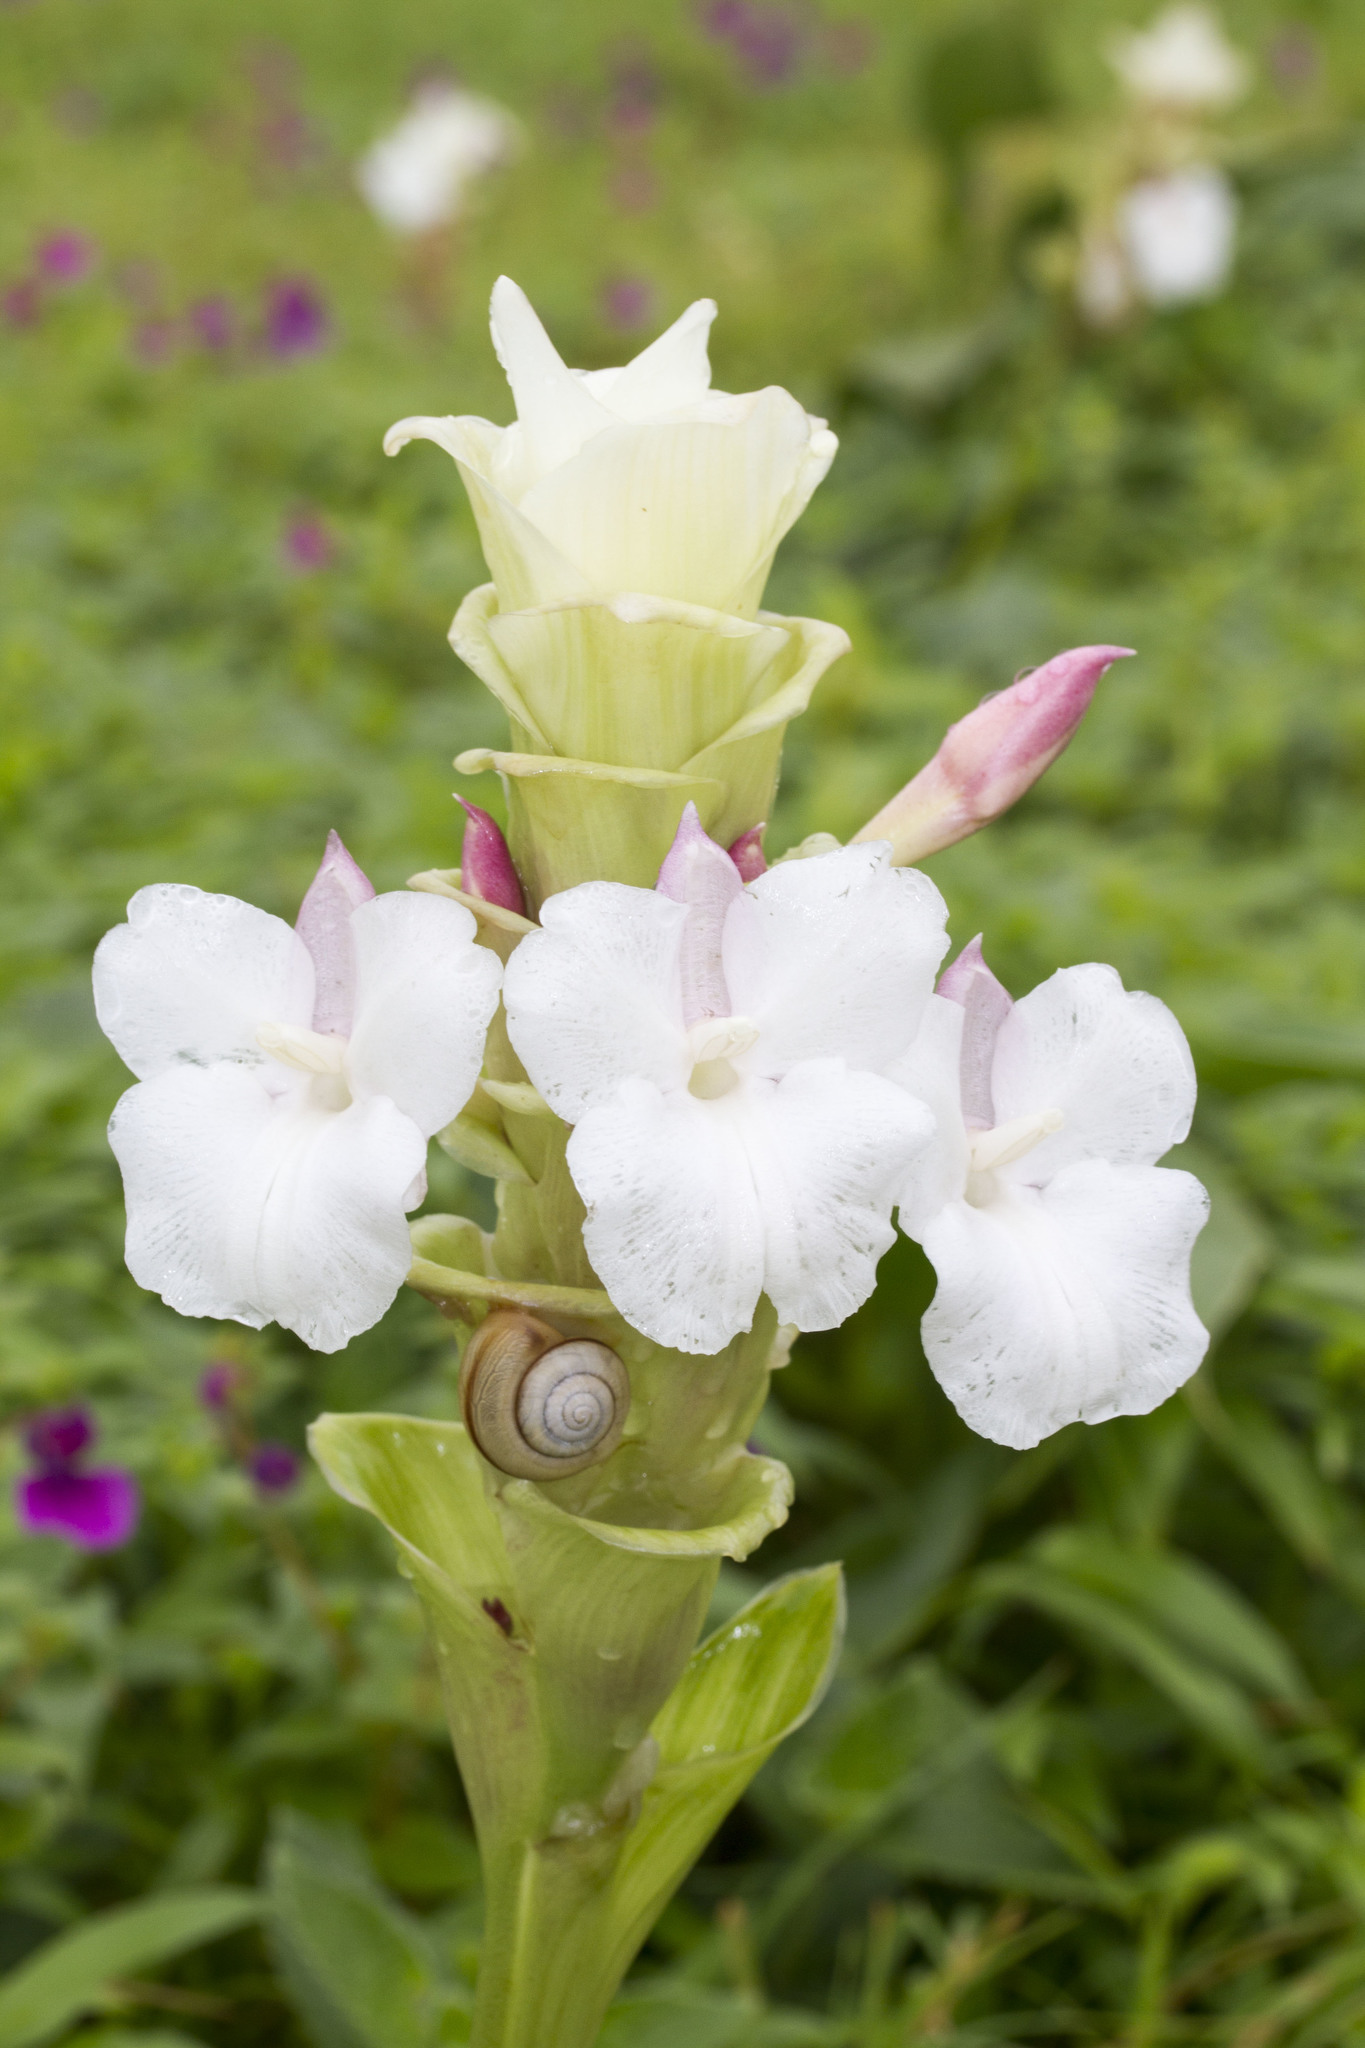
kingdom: Plantae
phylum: Tracheophyta
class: Liliopsida
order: Zingiberales
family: Zingiberaceae
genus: Curcuma
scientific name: Curcuma caulina
